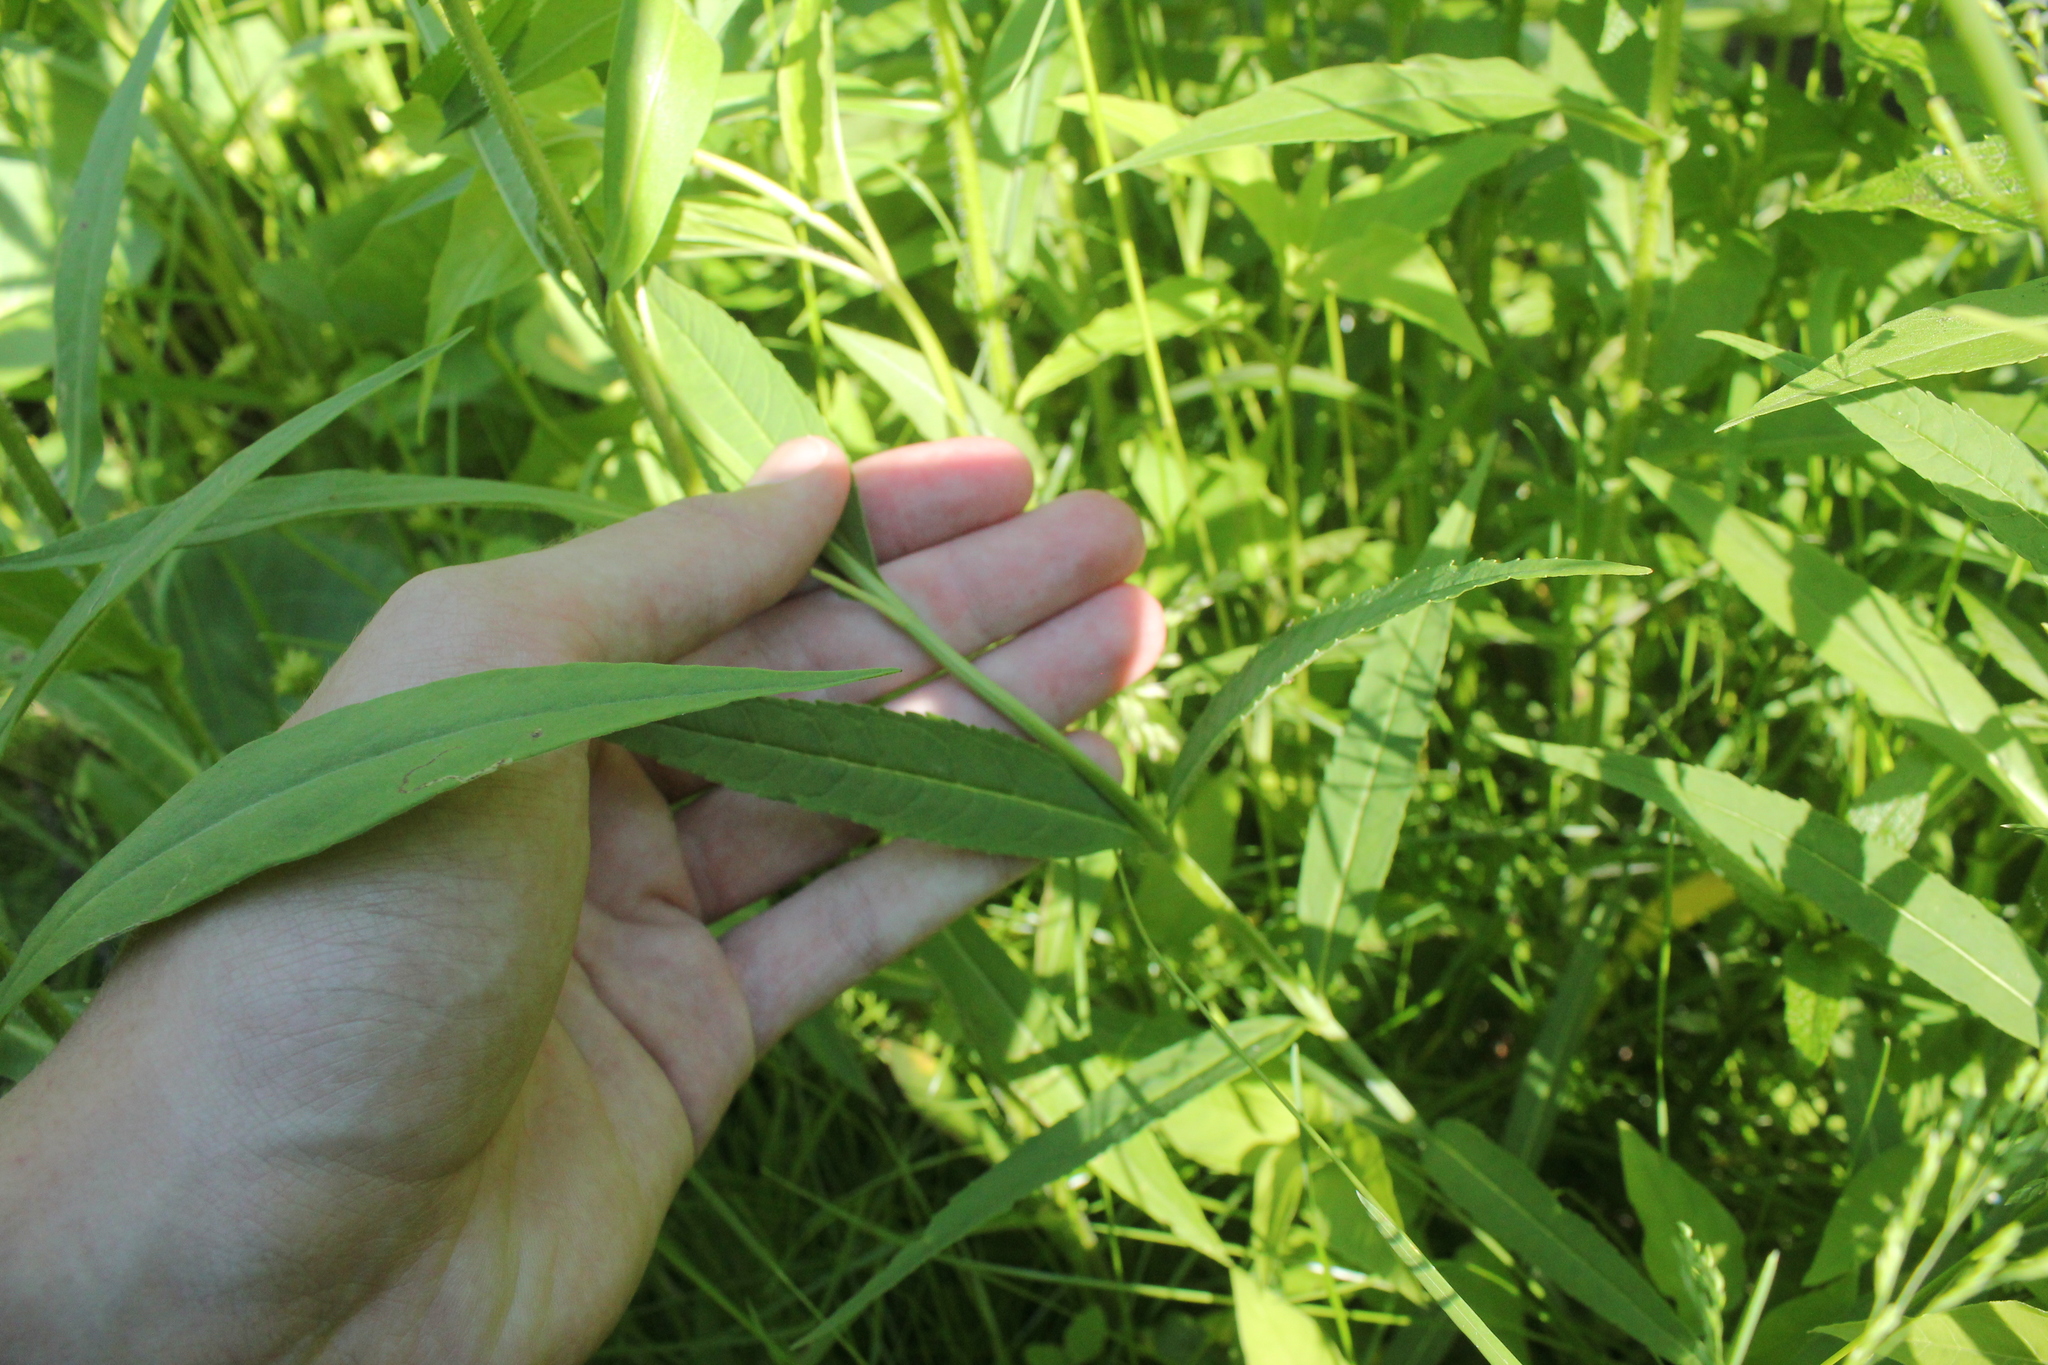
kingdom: Plantae
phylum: Tracheophyta
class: Magnoliopsida
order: Lamiales
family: Plantaginaceae
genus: Chelone
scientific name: Chelone glabra
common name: Snakehead
